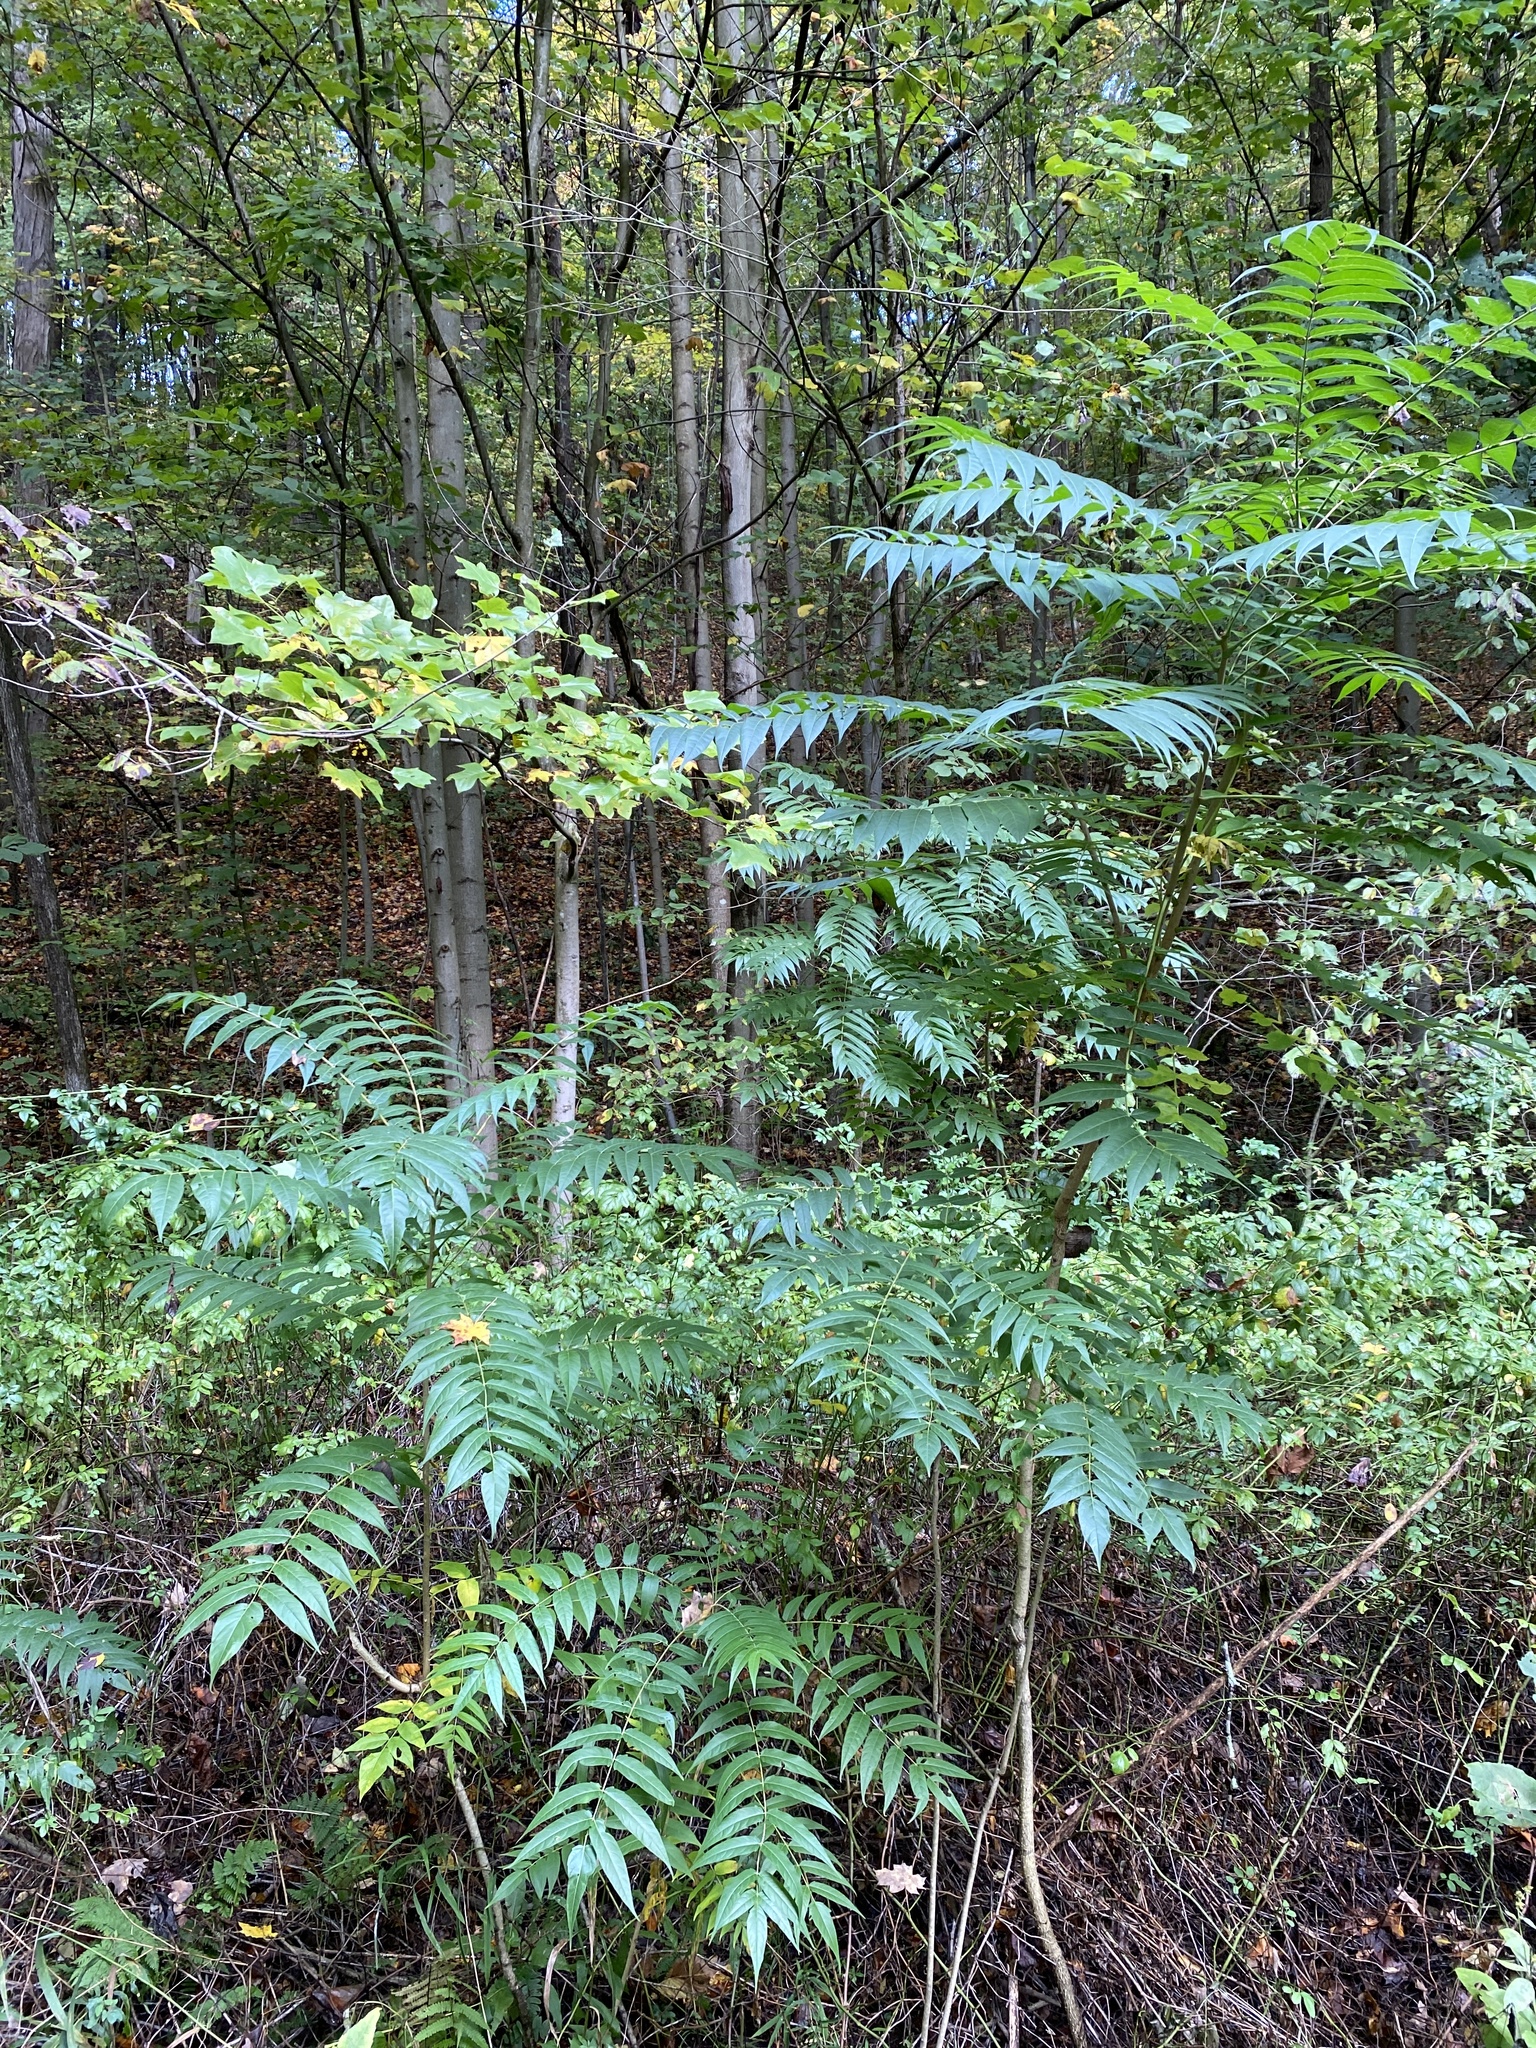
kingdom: Plantae
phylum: Tracheophyta
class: Magnoliopsida
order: Sapindales
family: Simaroubaceae
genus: Ailanthus
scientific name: Ailanthus altissima
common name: Tree-of-heaven
